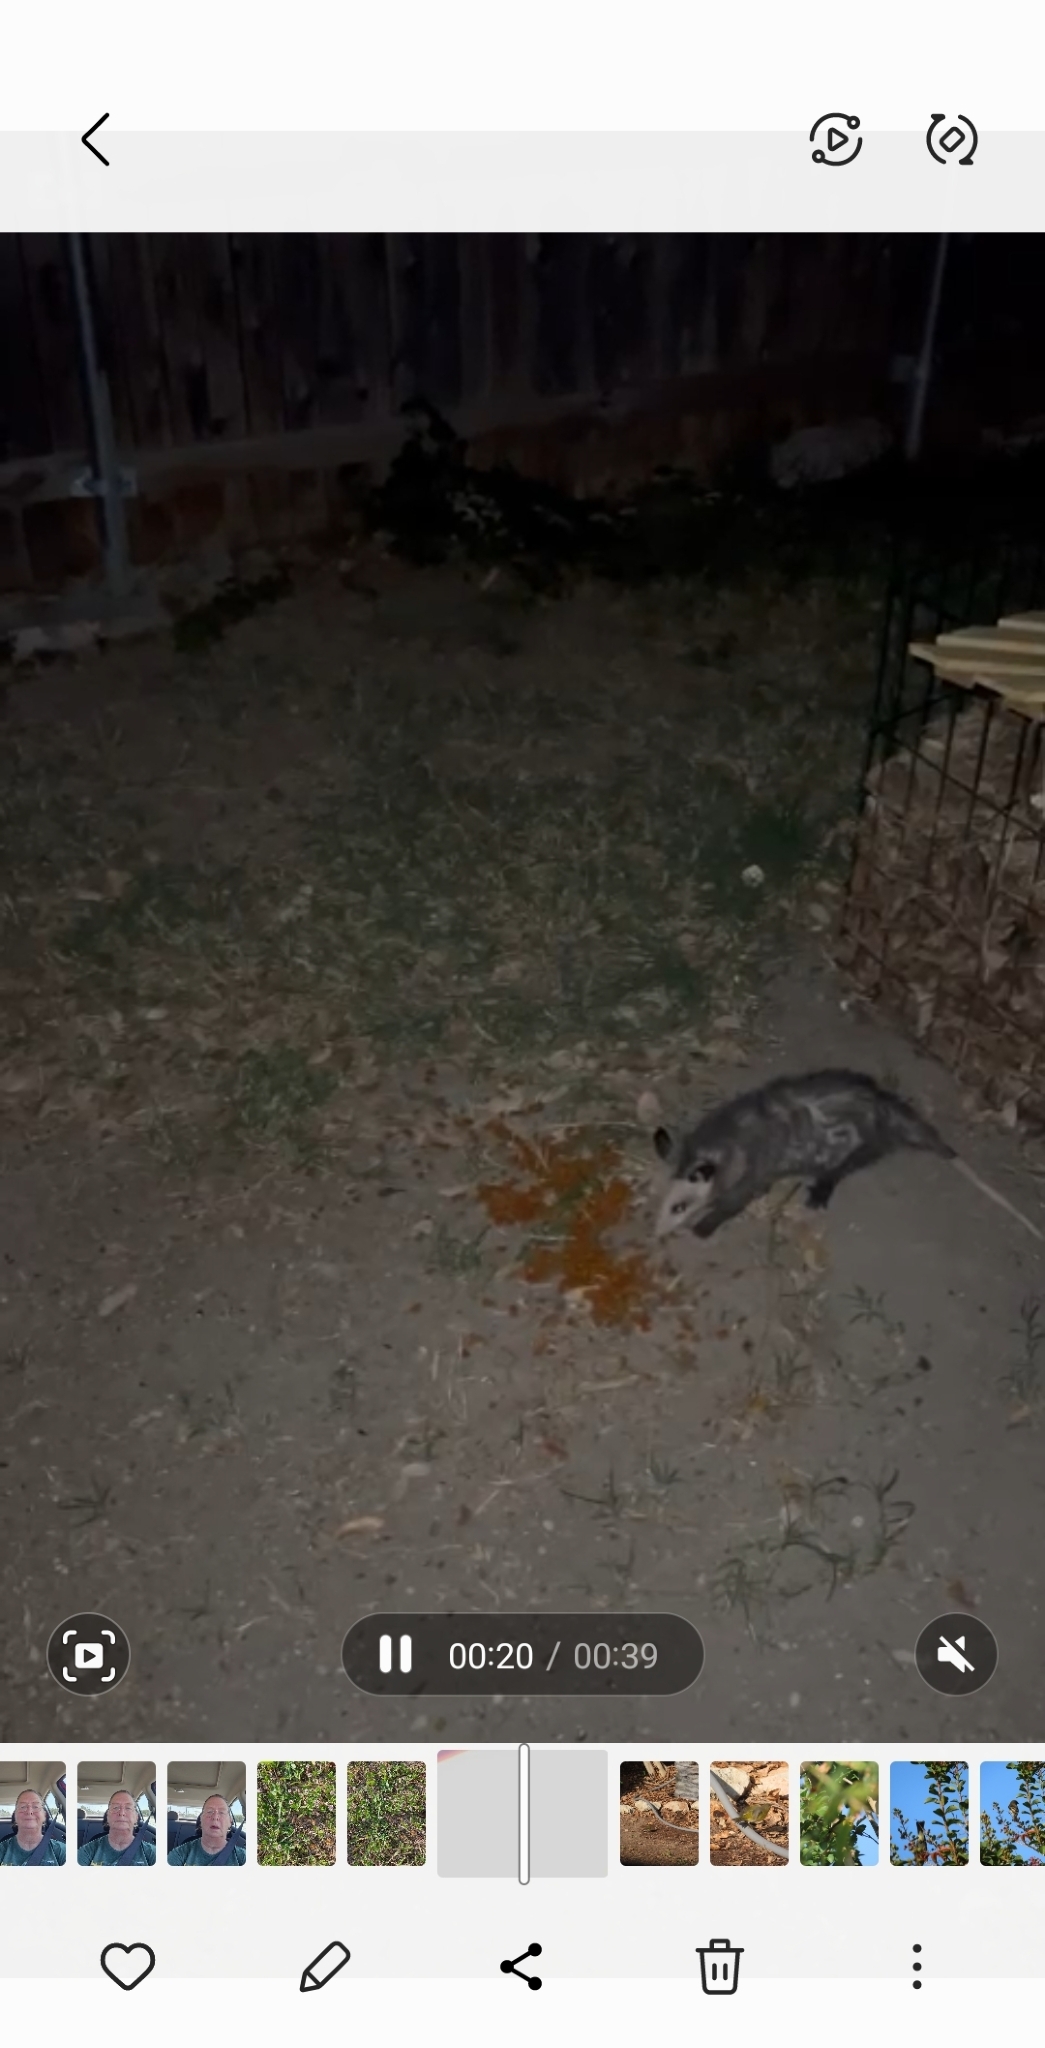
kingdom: Animalia
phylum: Chordata
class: Mammalia
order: Didelphimorphia
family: Didelphidae
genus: Didelphis
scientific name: Didelphis virginiana
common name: Virginia opossum
